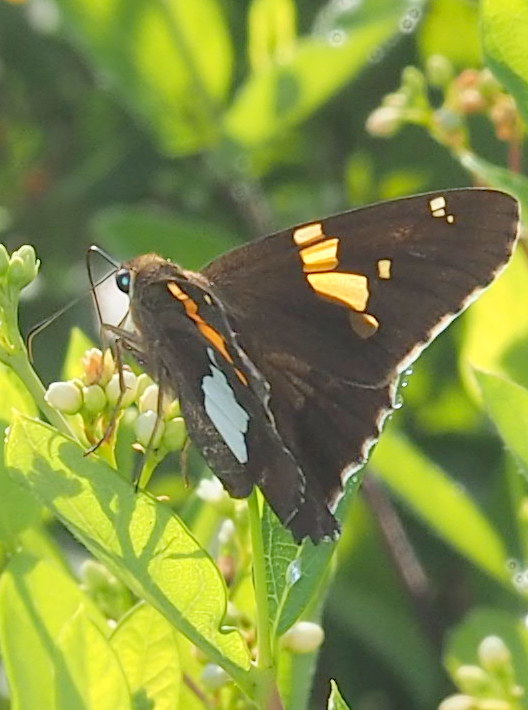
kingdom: Animalia
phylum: Arthropoda
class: Insecta
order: Lepidoptera
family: Hesperiidae
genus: Epargyreus
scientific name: Epargyreus clarus
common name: Silver-spotted skipper
